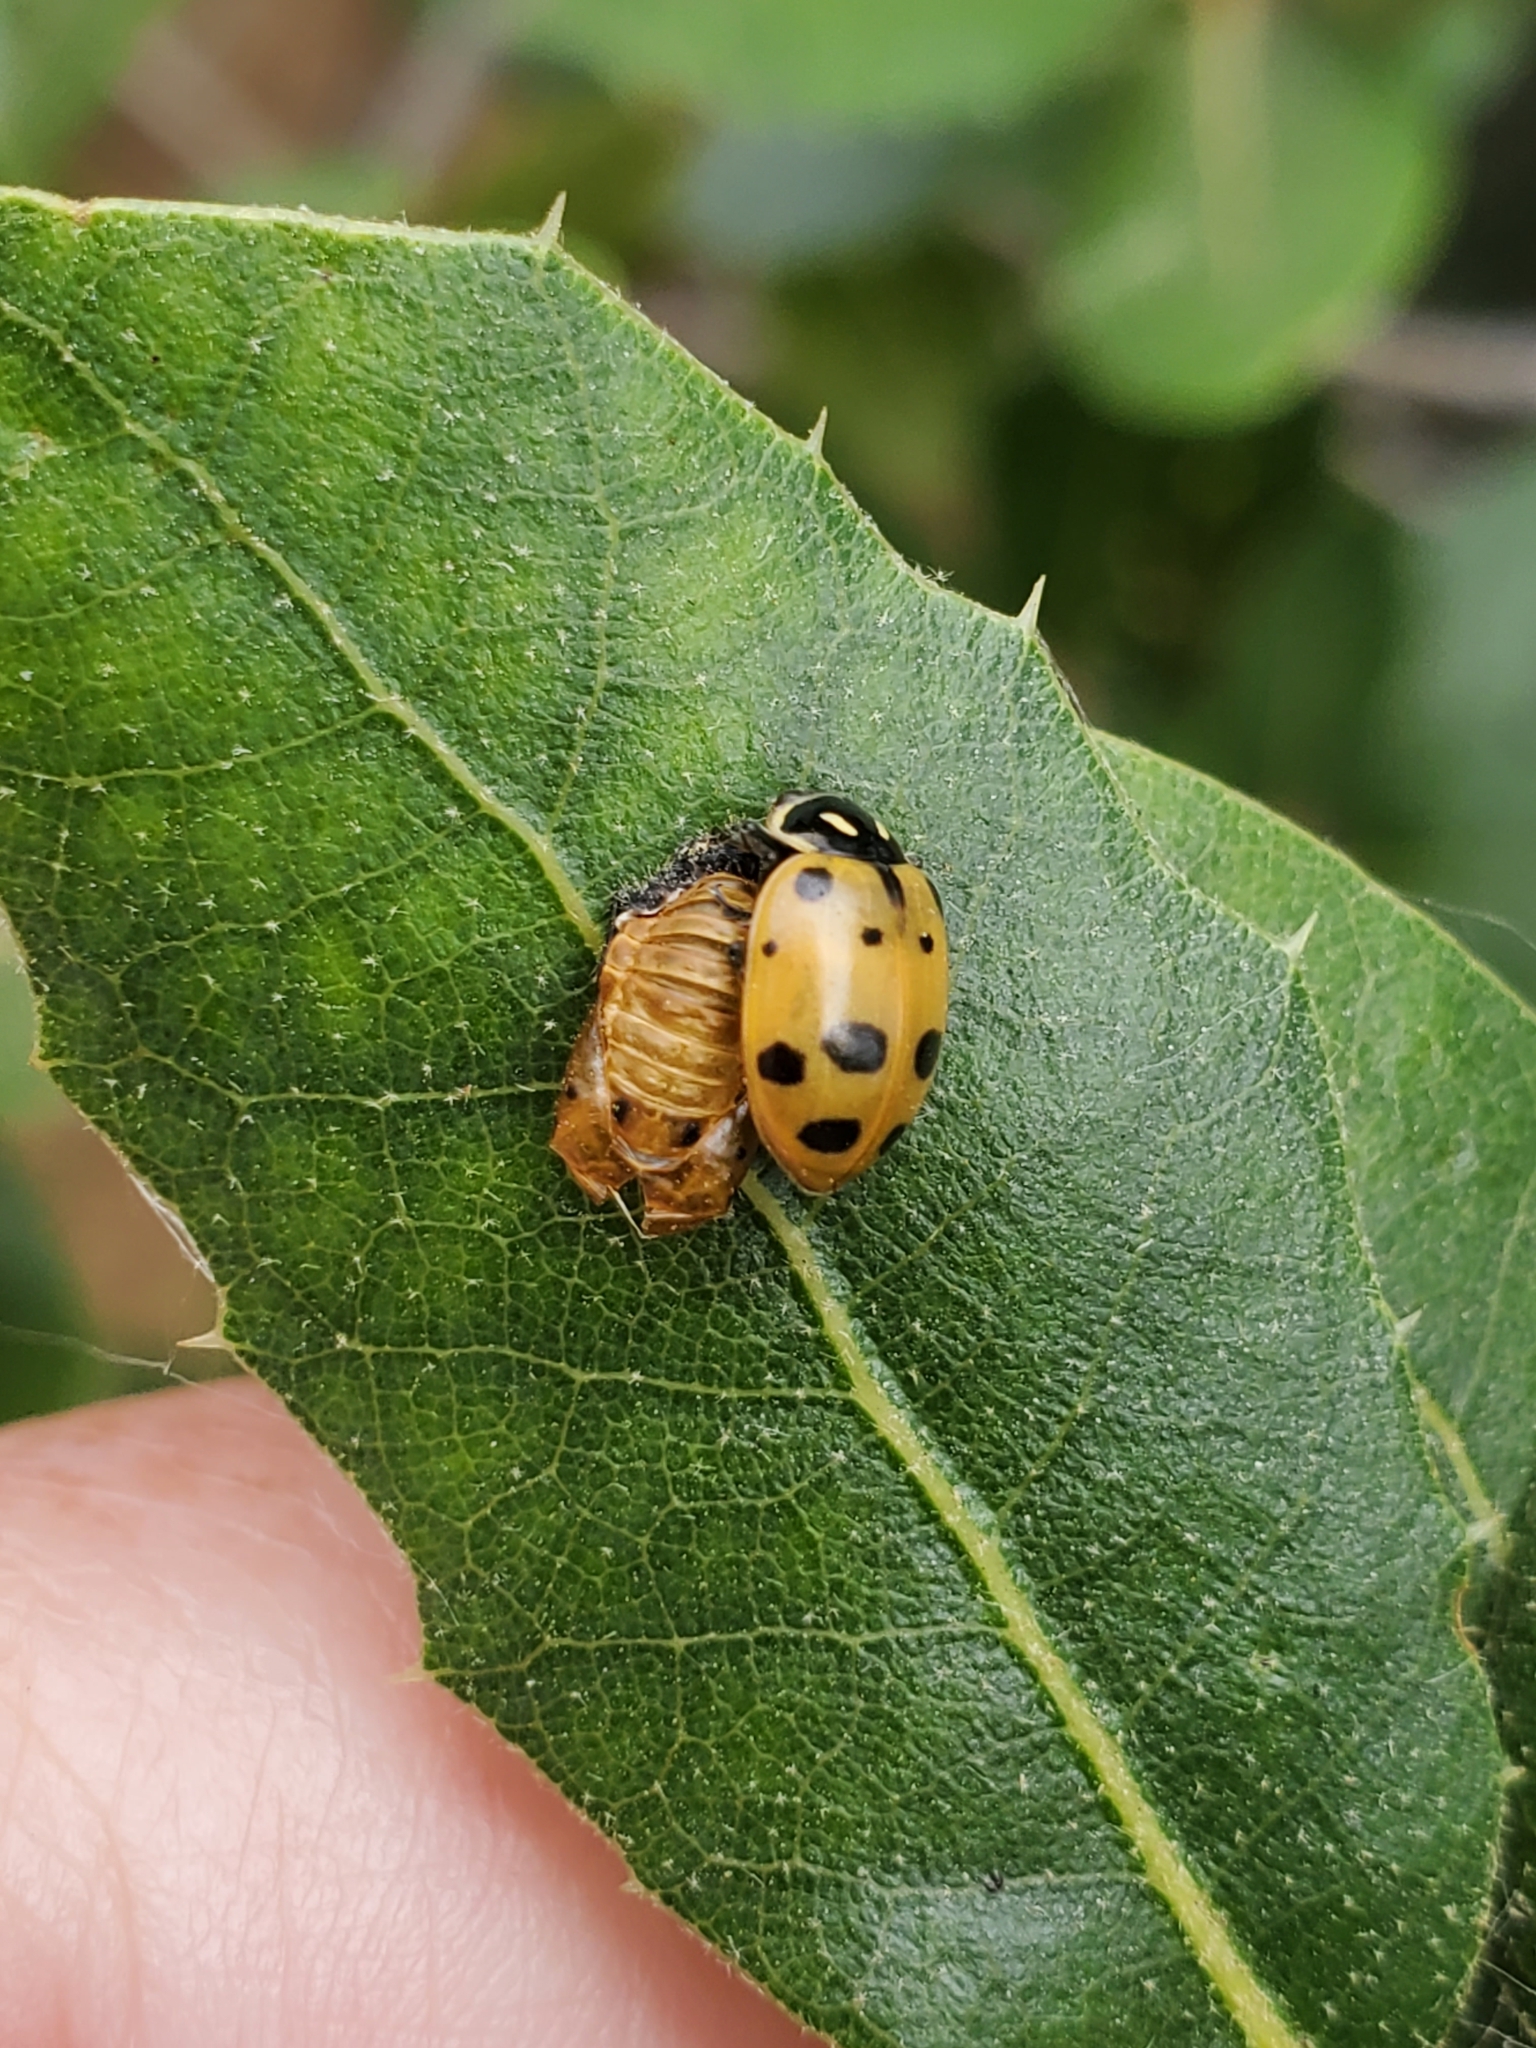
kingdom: Animalia
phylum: Arthropoda
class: Insecta
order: Coleoptera
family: Coccinellidae
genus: Hippodamia
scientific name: Hippodamia convergens
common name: Convergent lady beetle
